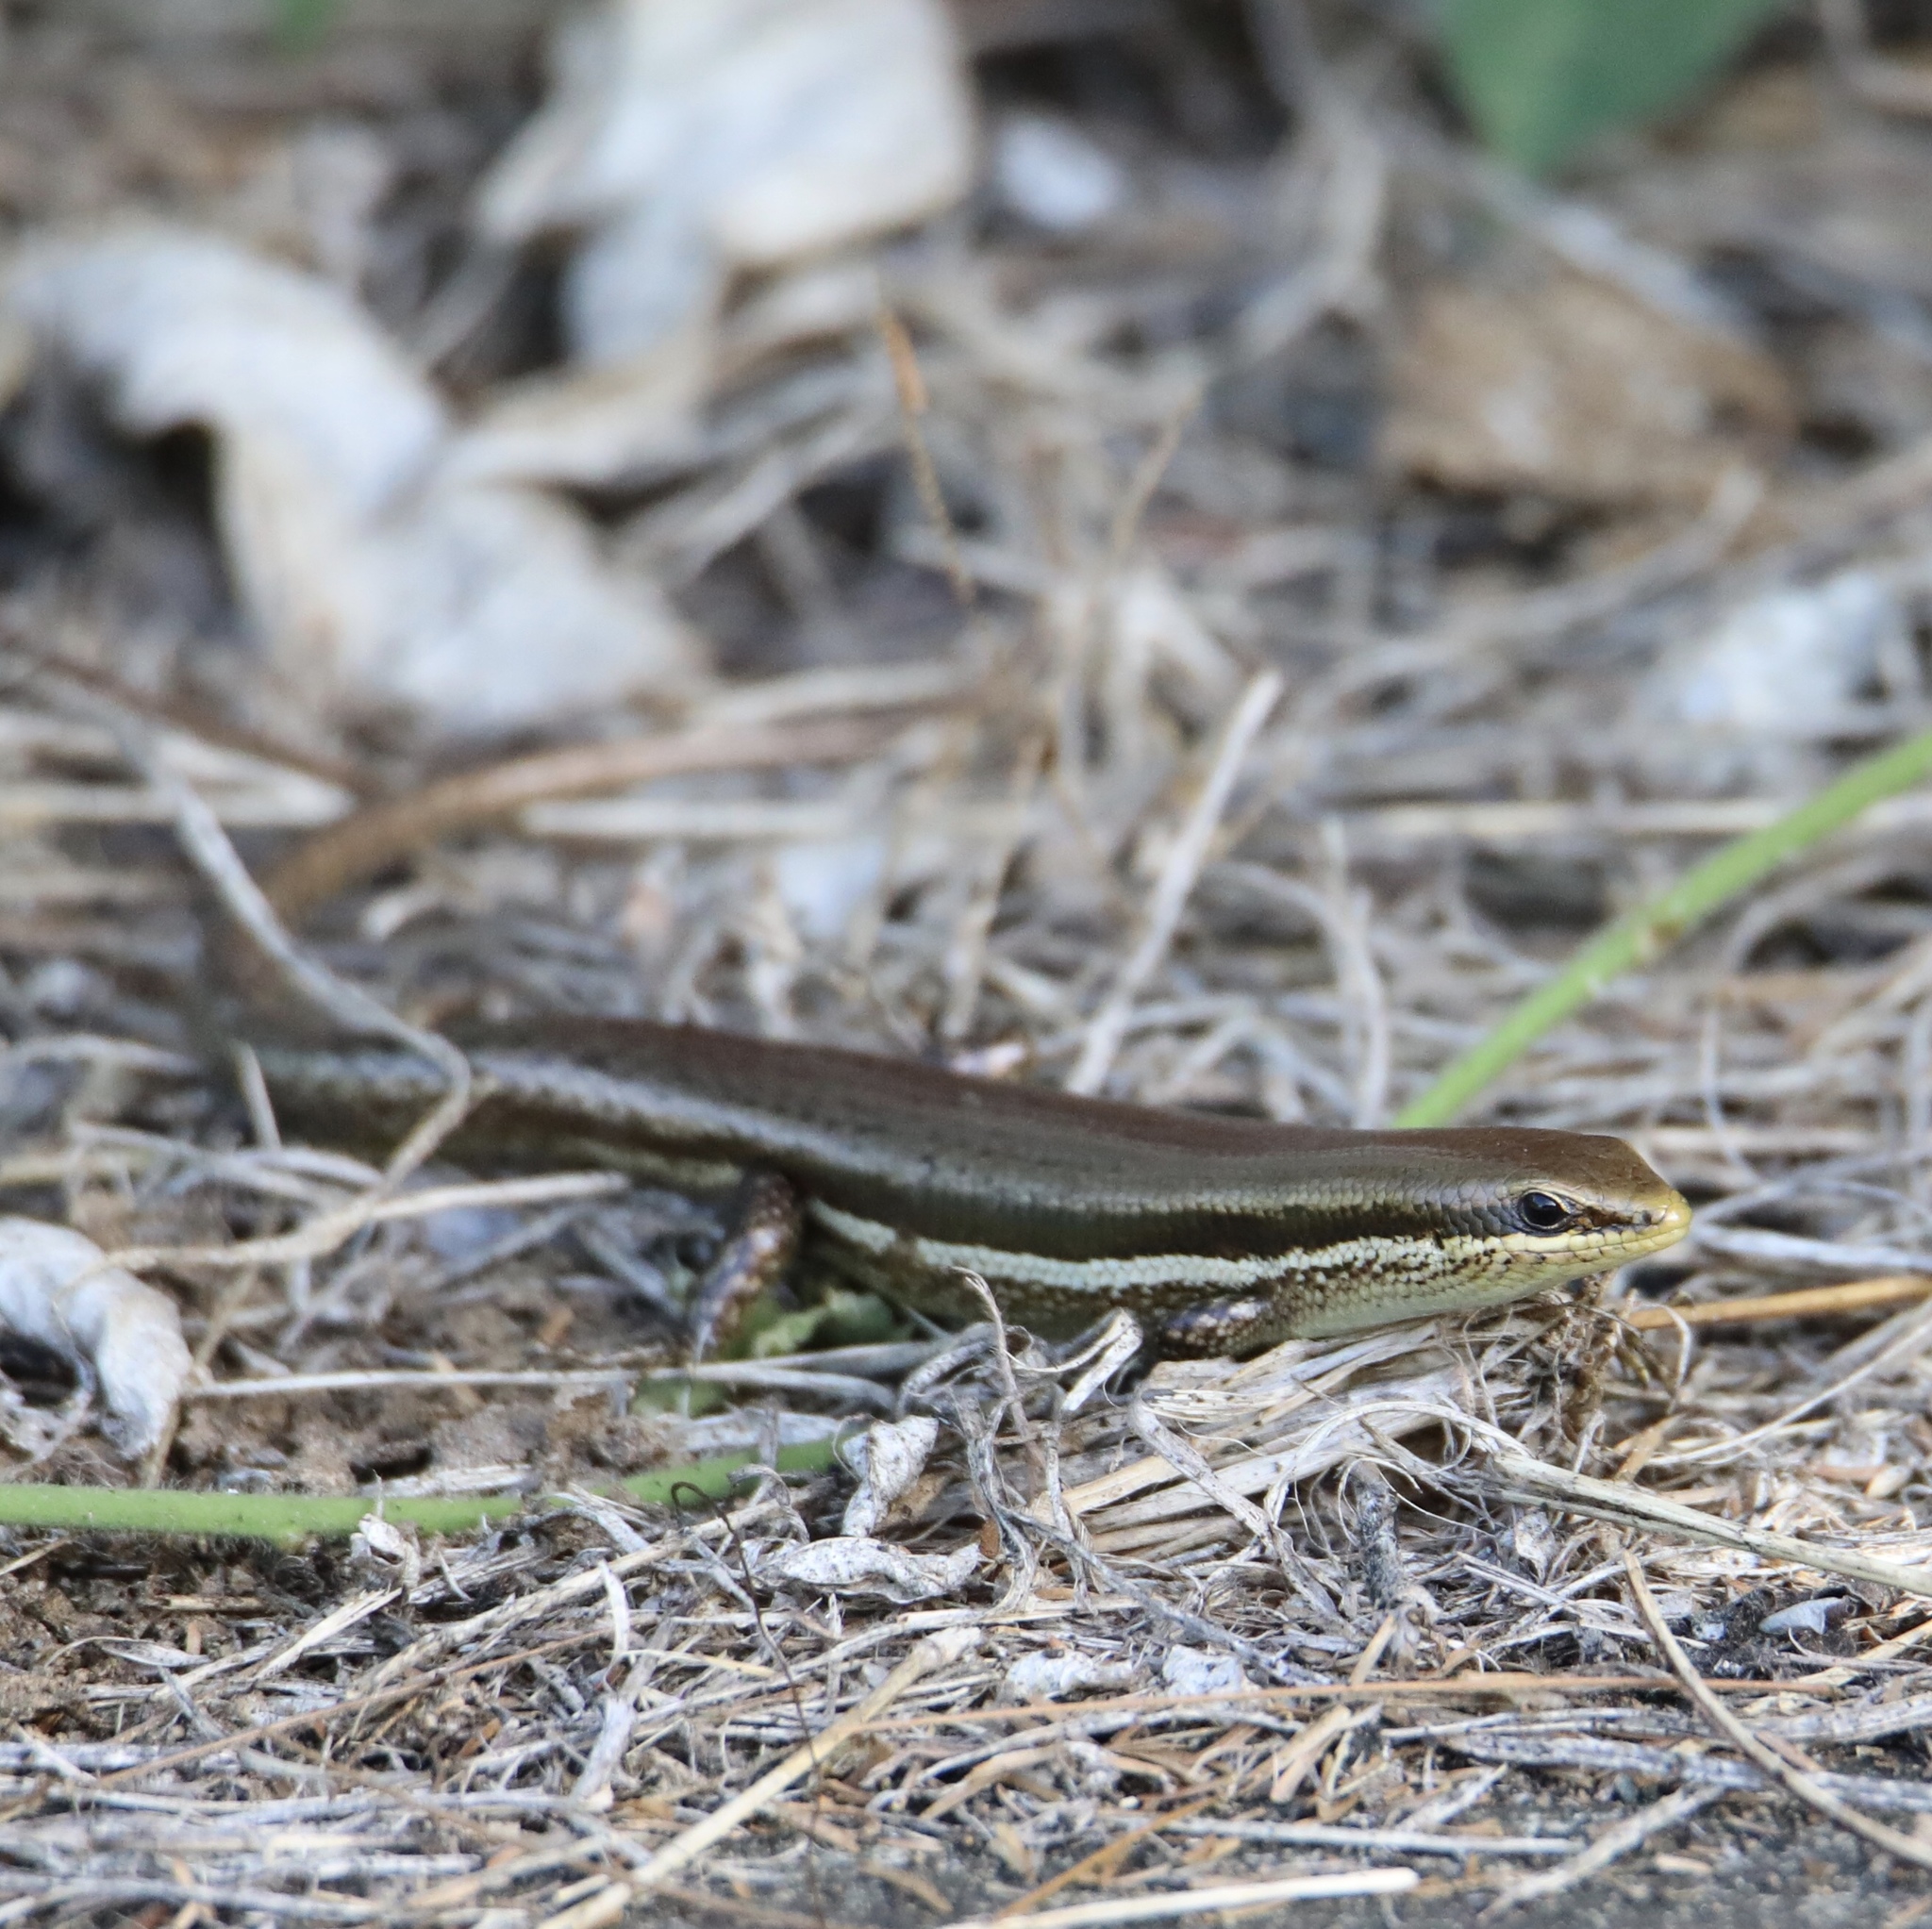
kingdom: Animalia
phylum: Chordata
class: Squamata
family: Scincidae
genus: Marisora
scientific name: Marisora unimarginata
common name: Central american mabuya
